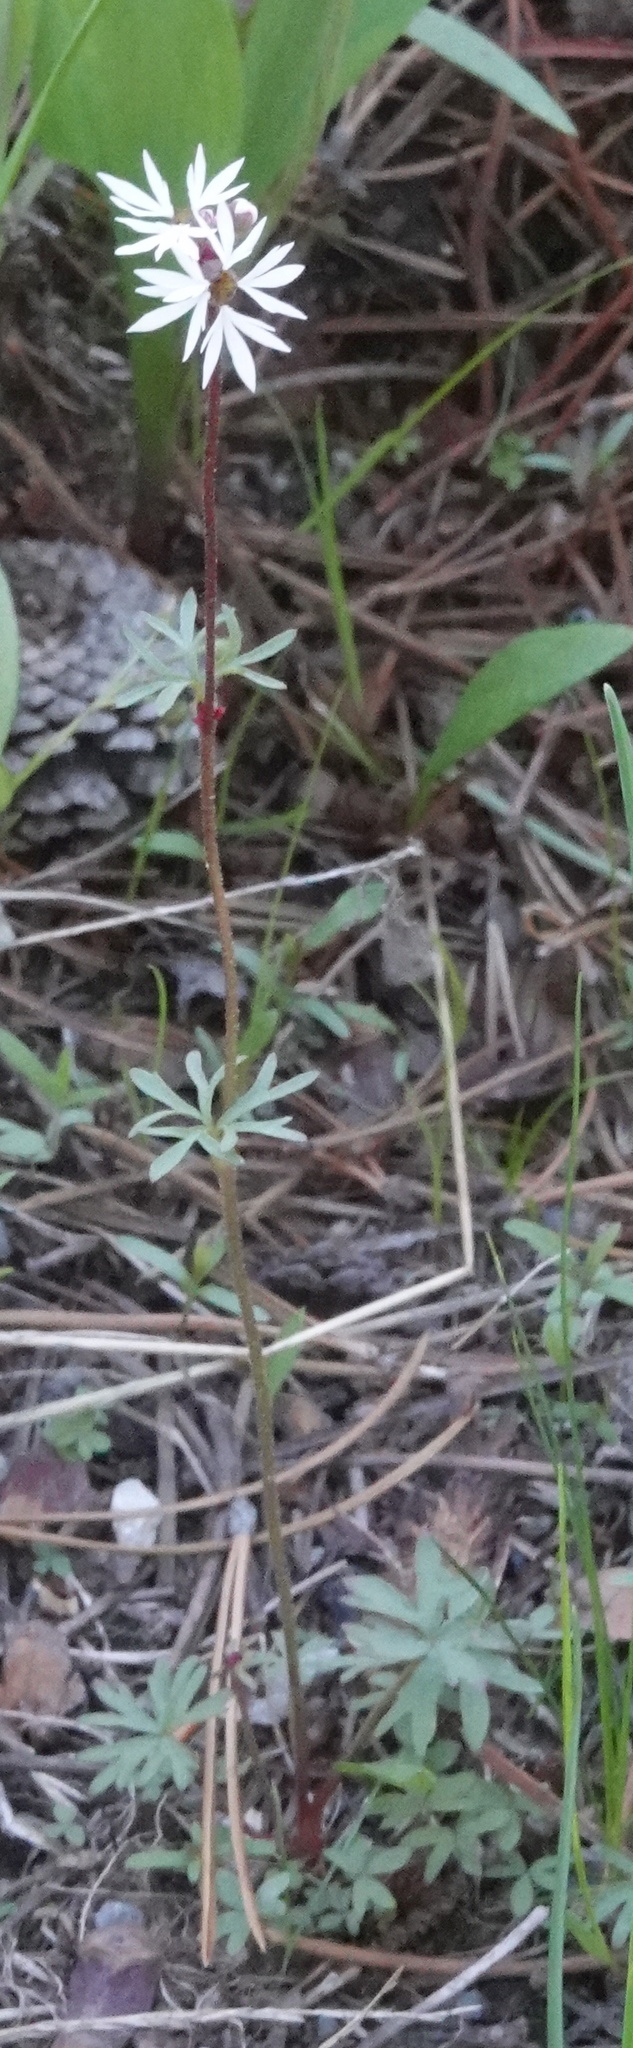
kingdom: Plantae
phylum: Tracheophyta
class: Magnoliopsida
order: Saxifragales
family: Saxifragaceae
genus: Lithophragma
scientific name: Lithophragma glabrum
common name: Bulbous prairie-star
